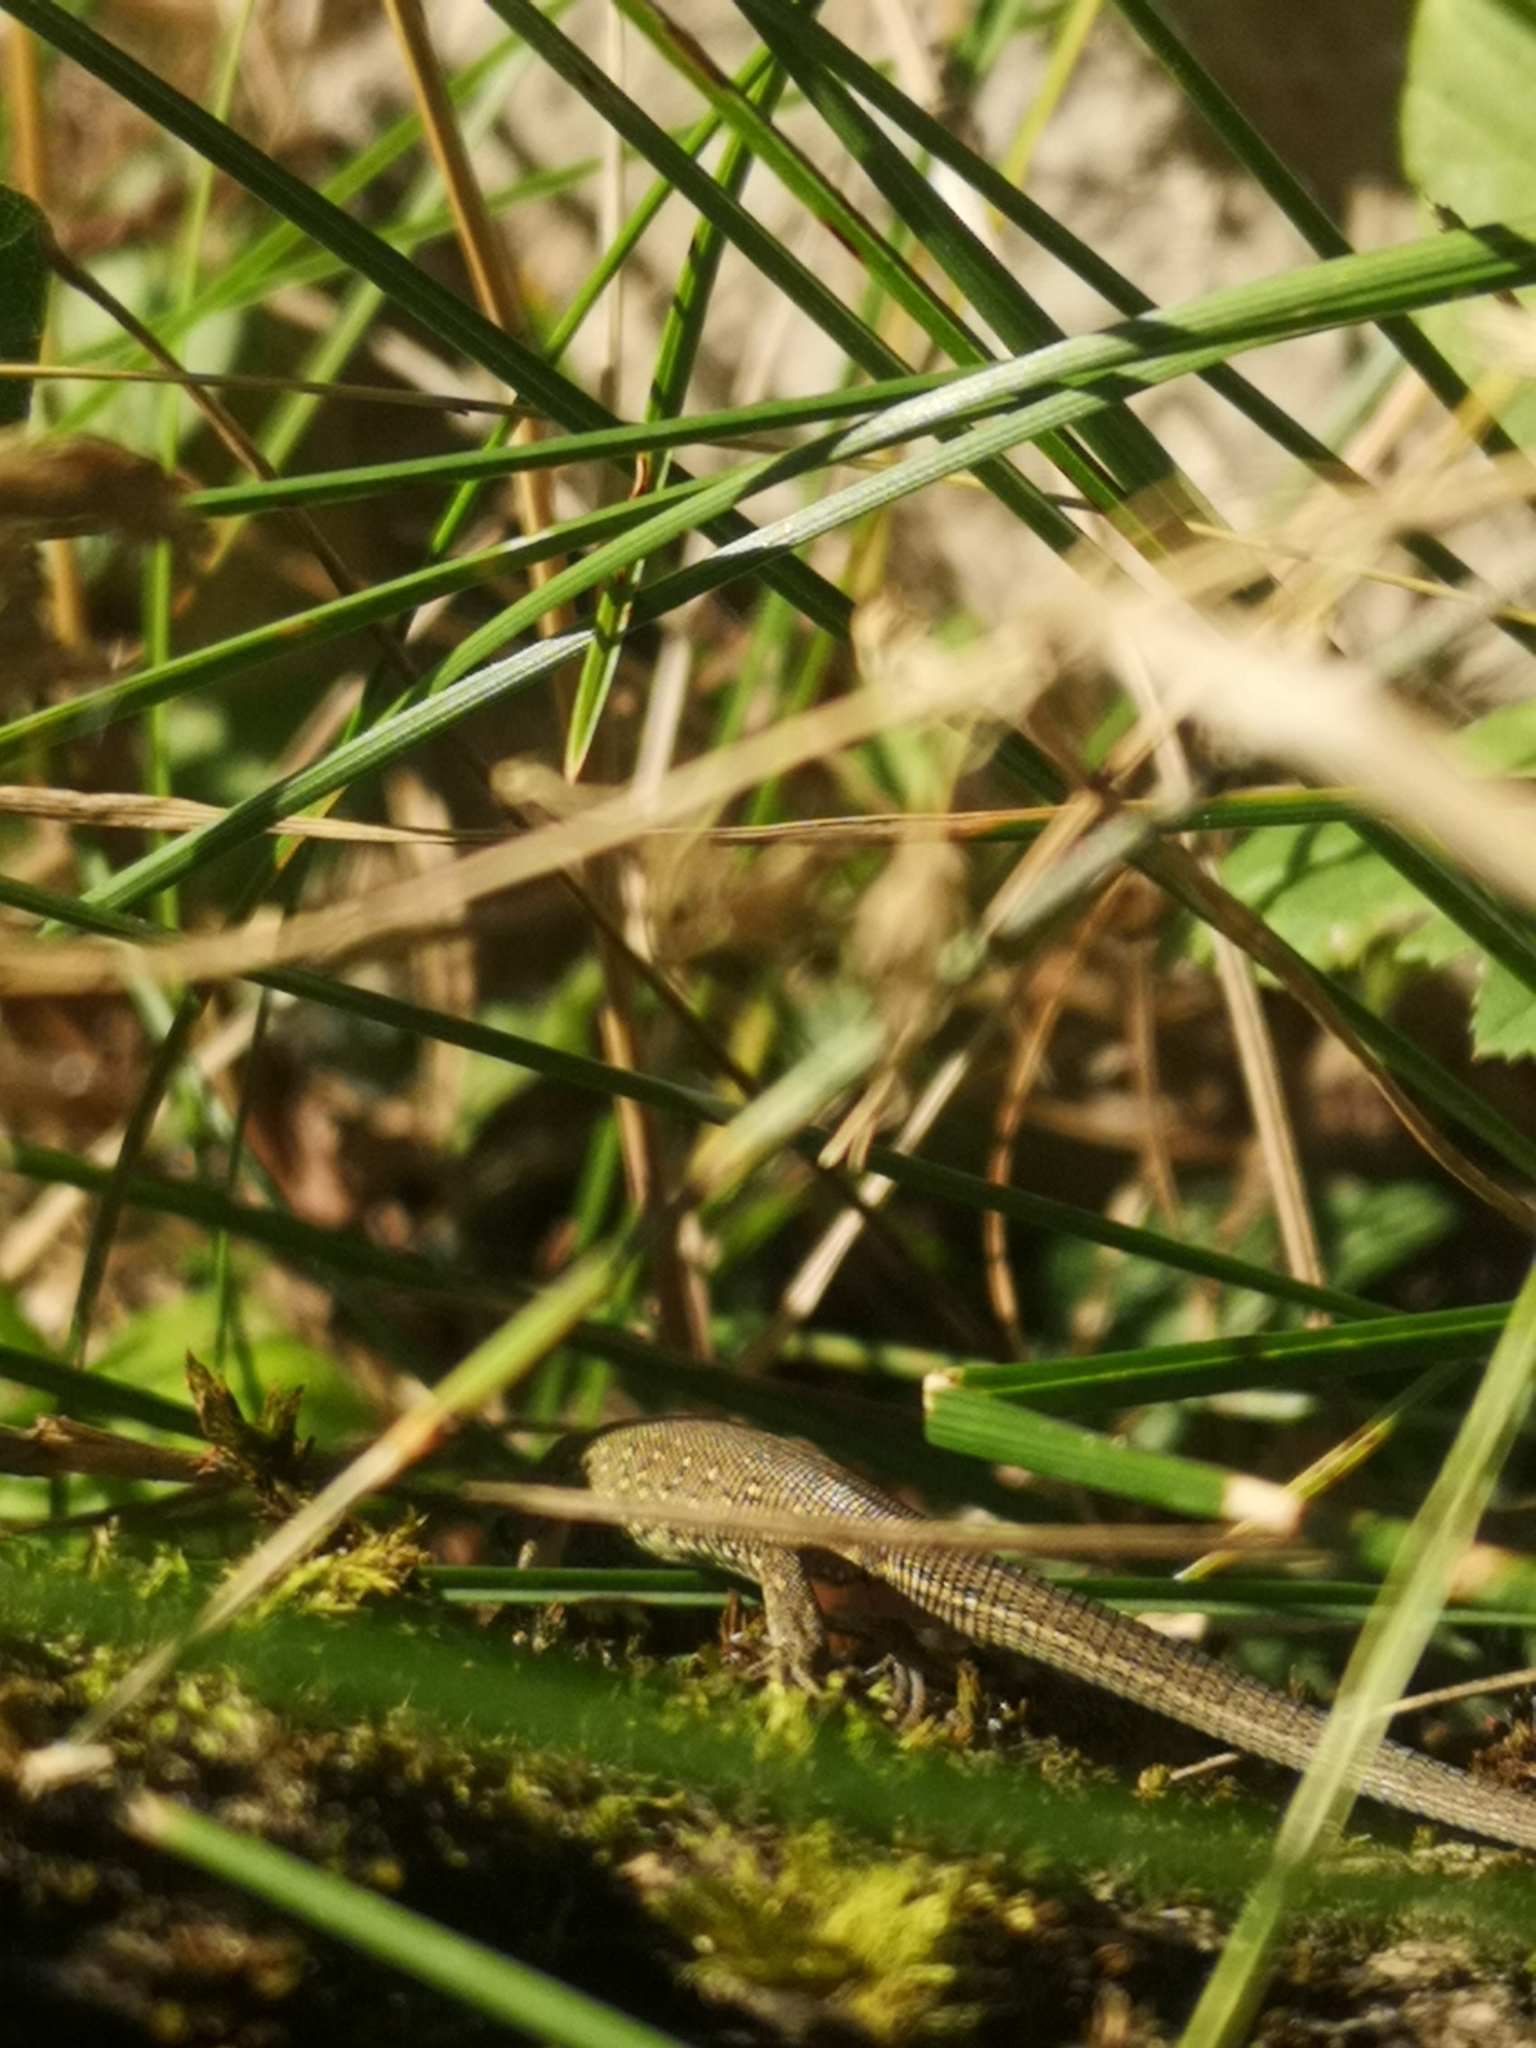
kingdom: Animalia
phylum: Chordata
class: Squamata
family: Lacertidae
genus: Lacerta
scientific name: Lacerta agilis
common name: Sand lizard
